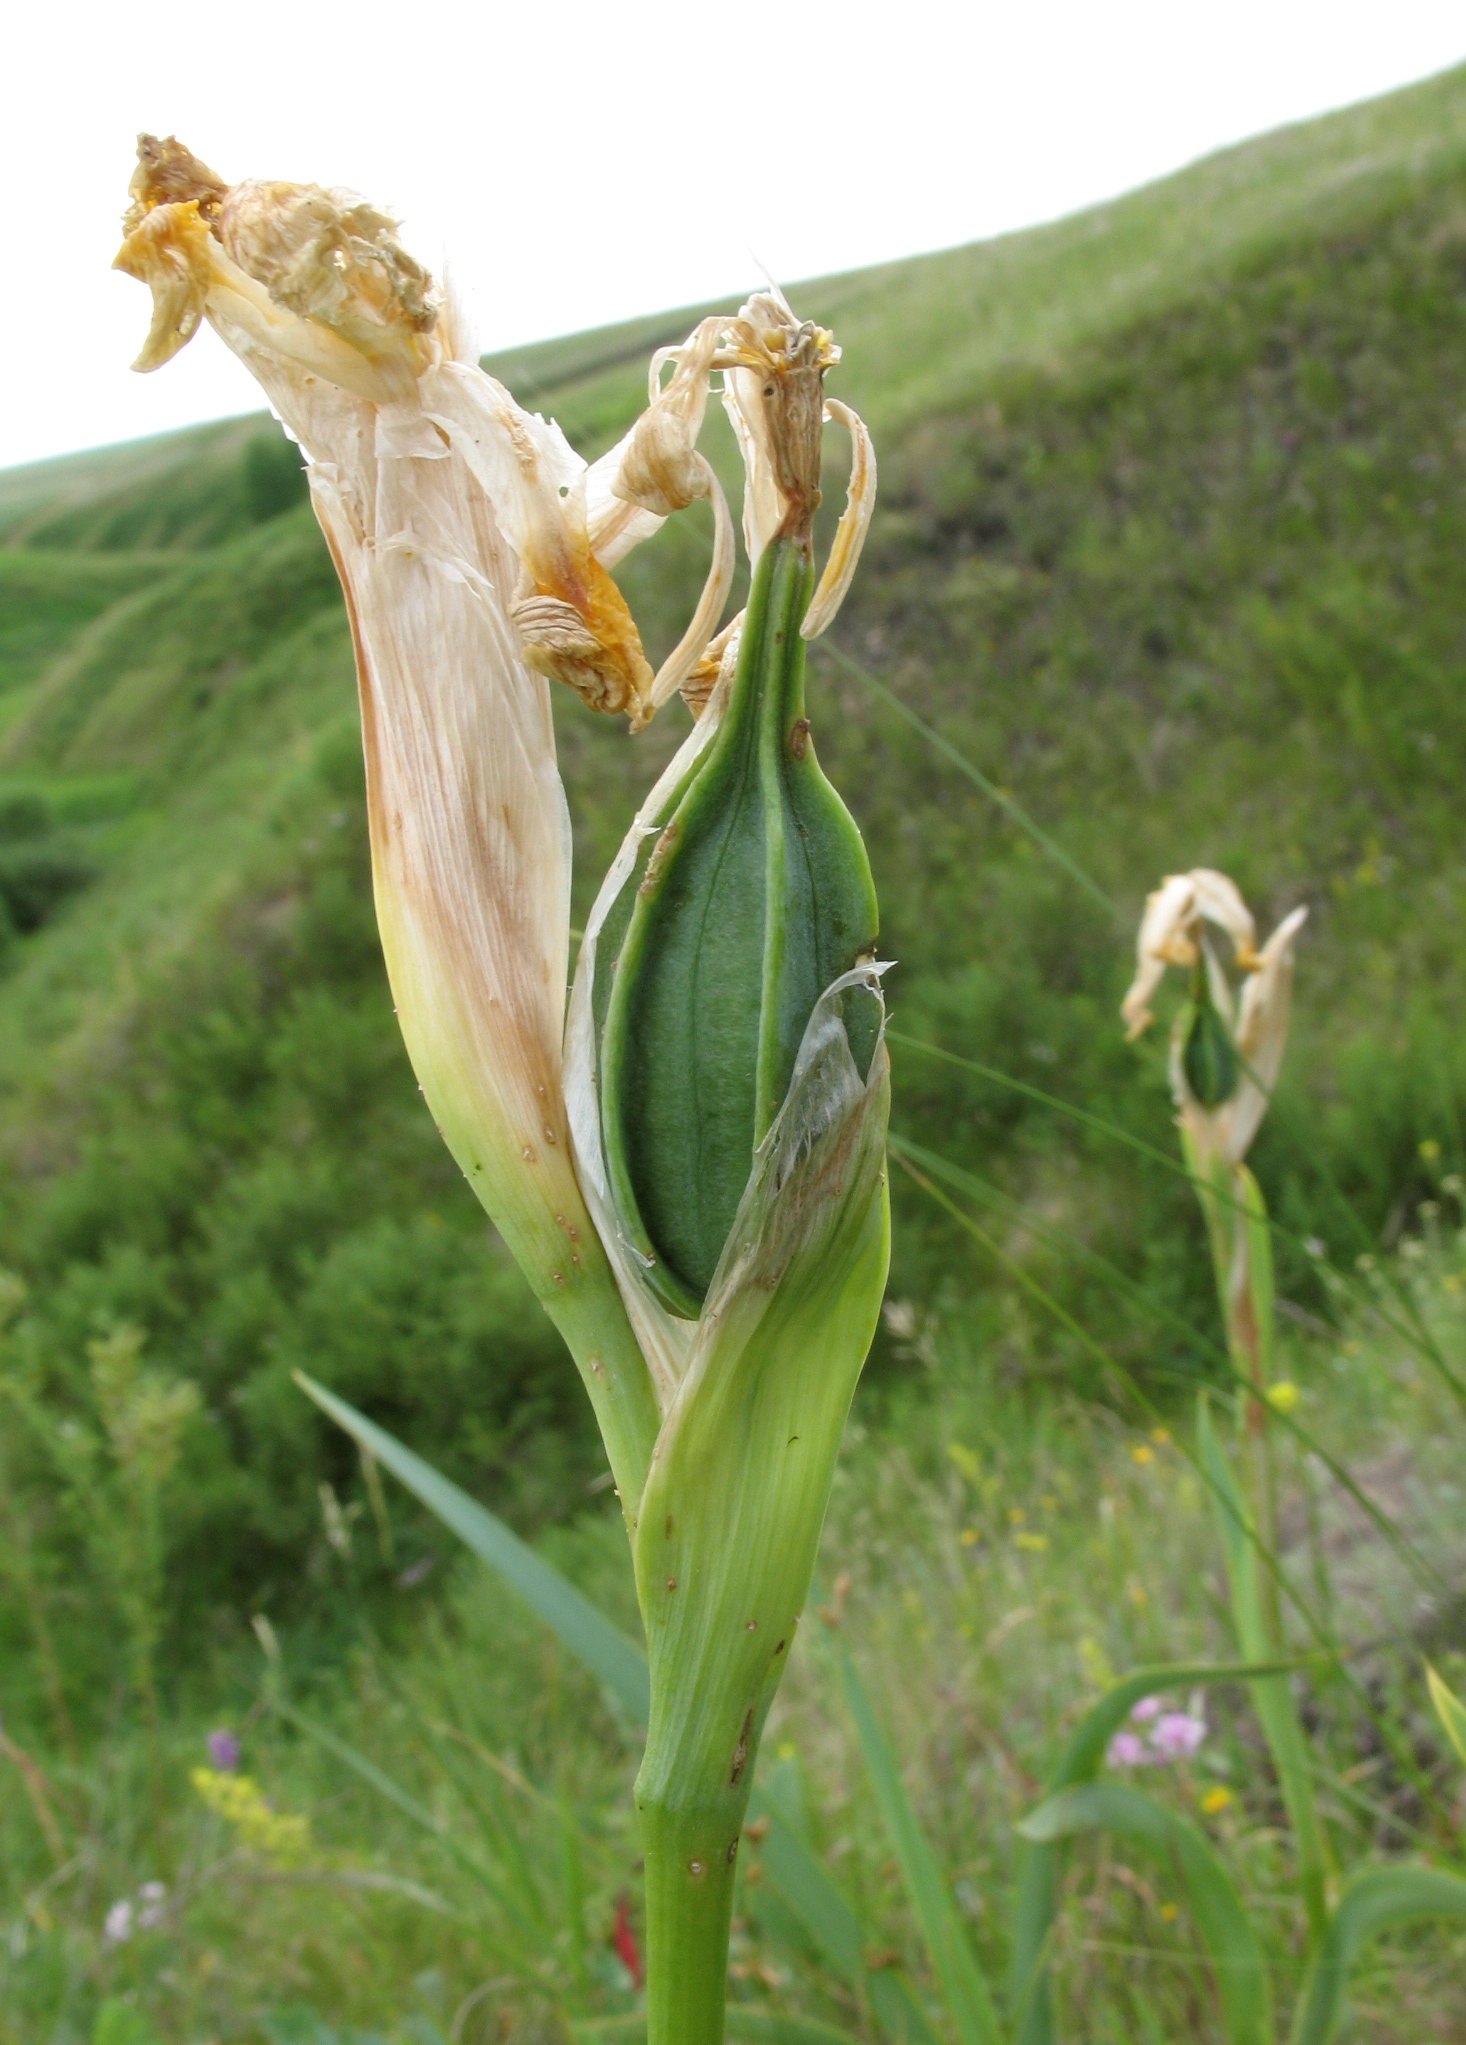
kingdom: Plantae
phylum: Tracheophyta
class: Liliopsida
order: Asparagales
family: Iridaceae
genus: Iris
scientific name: Iris halophila
